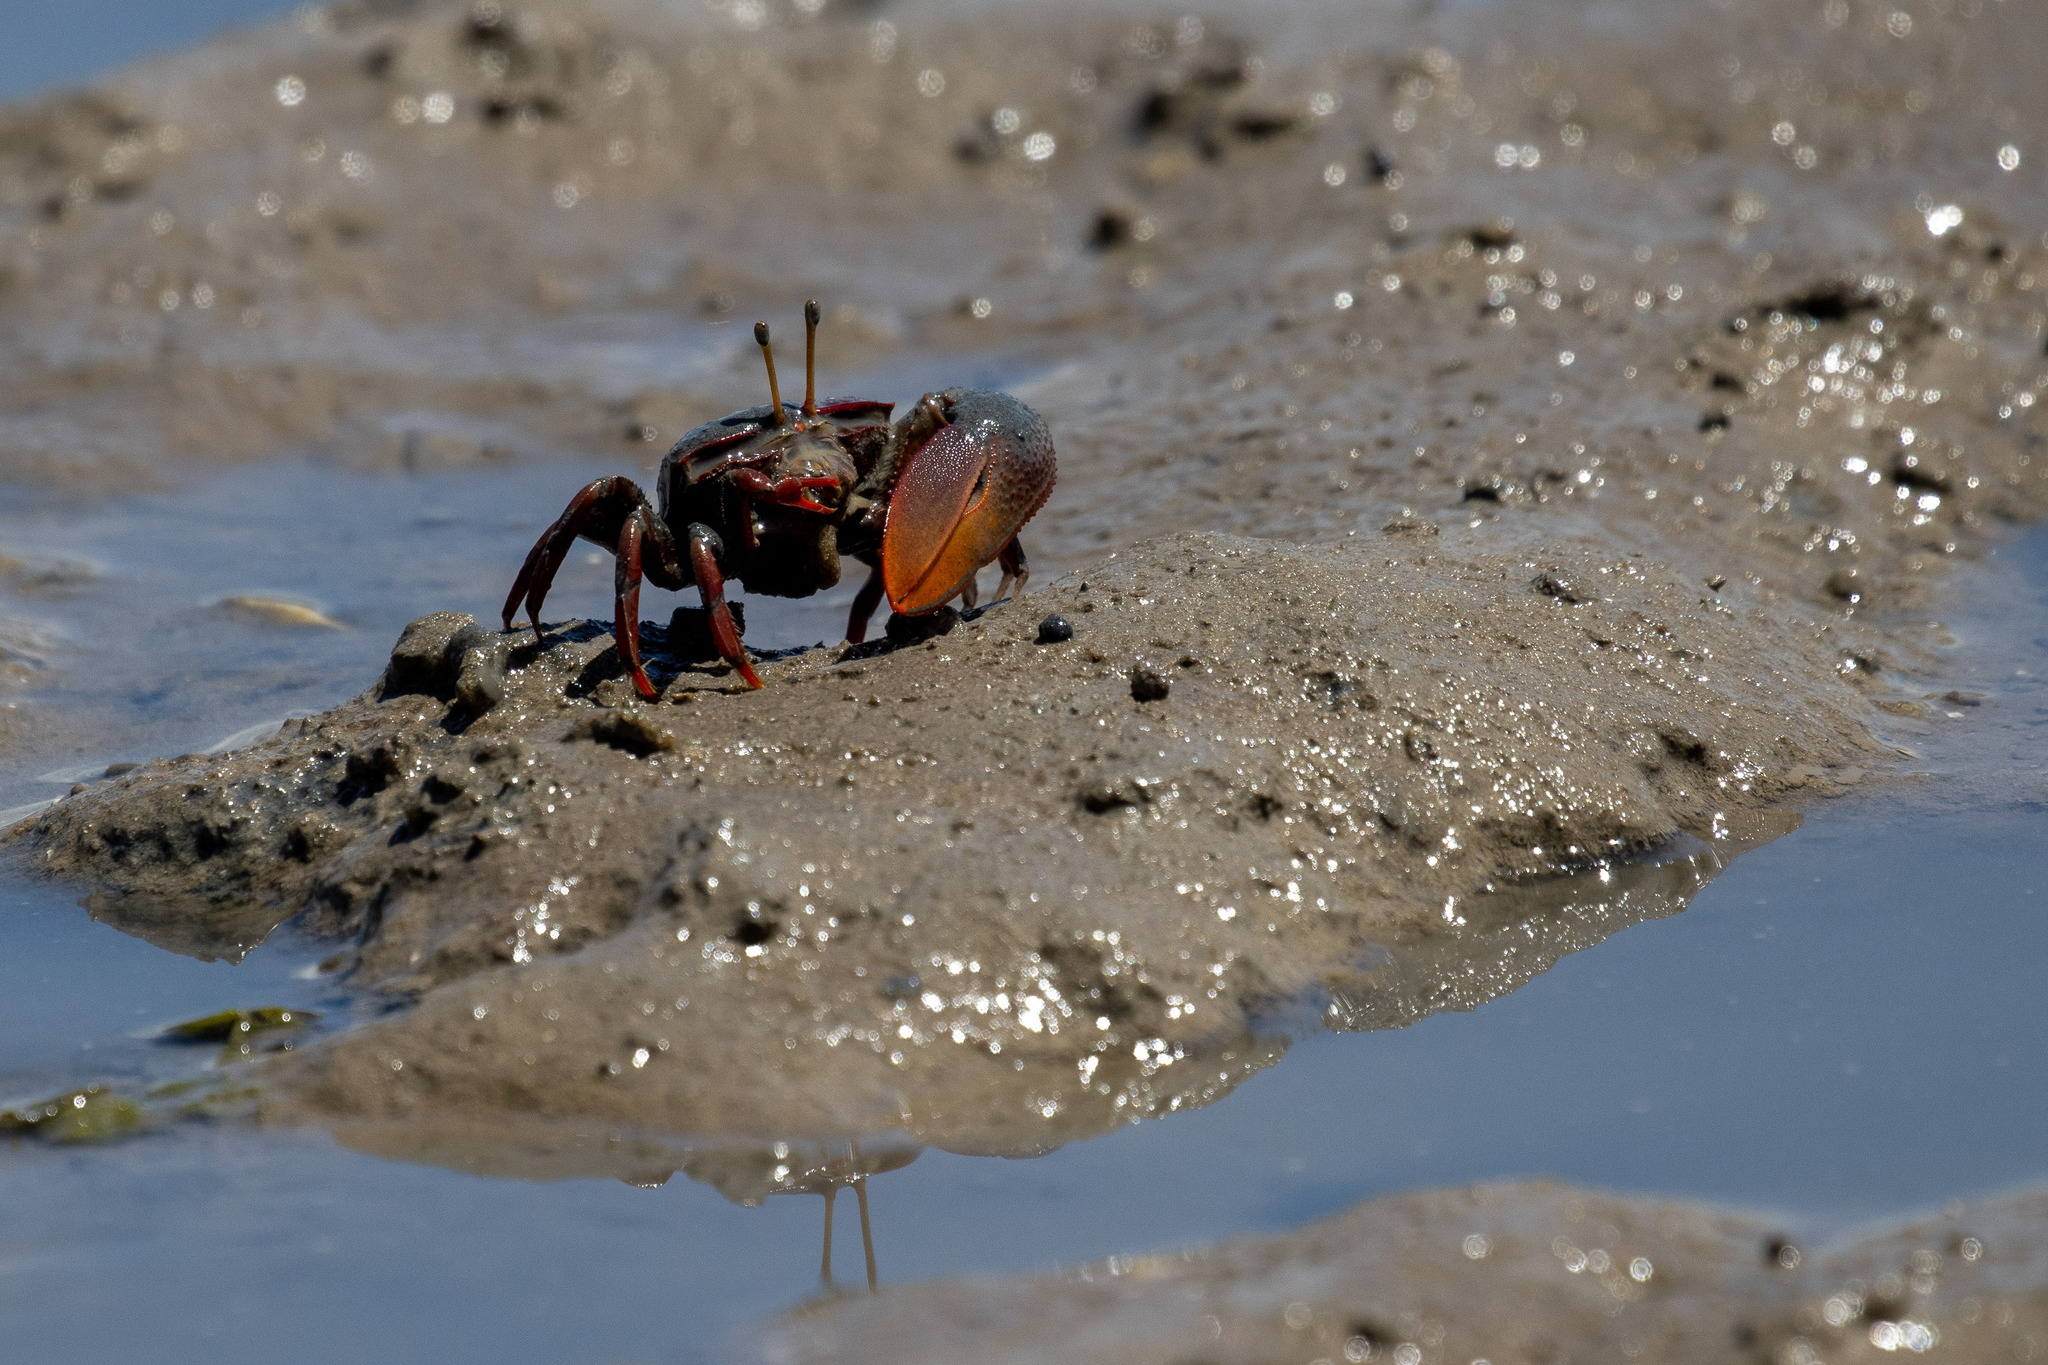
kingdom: Animalia
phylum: Arthropoda
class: Malacostraca
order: Decapoda
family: Ocypodidae
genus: Uca
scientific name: Uca maracoani
